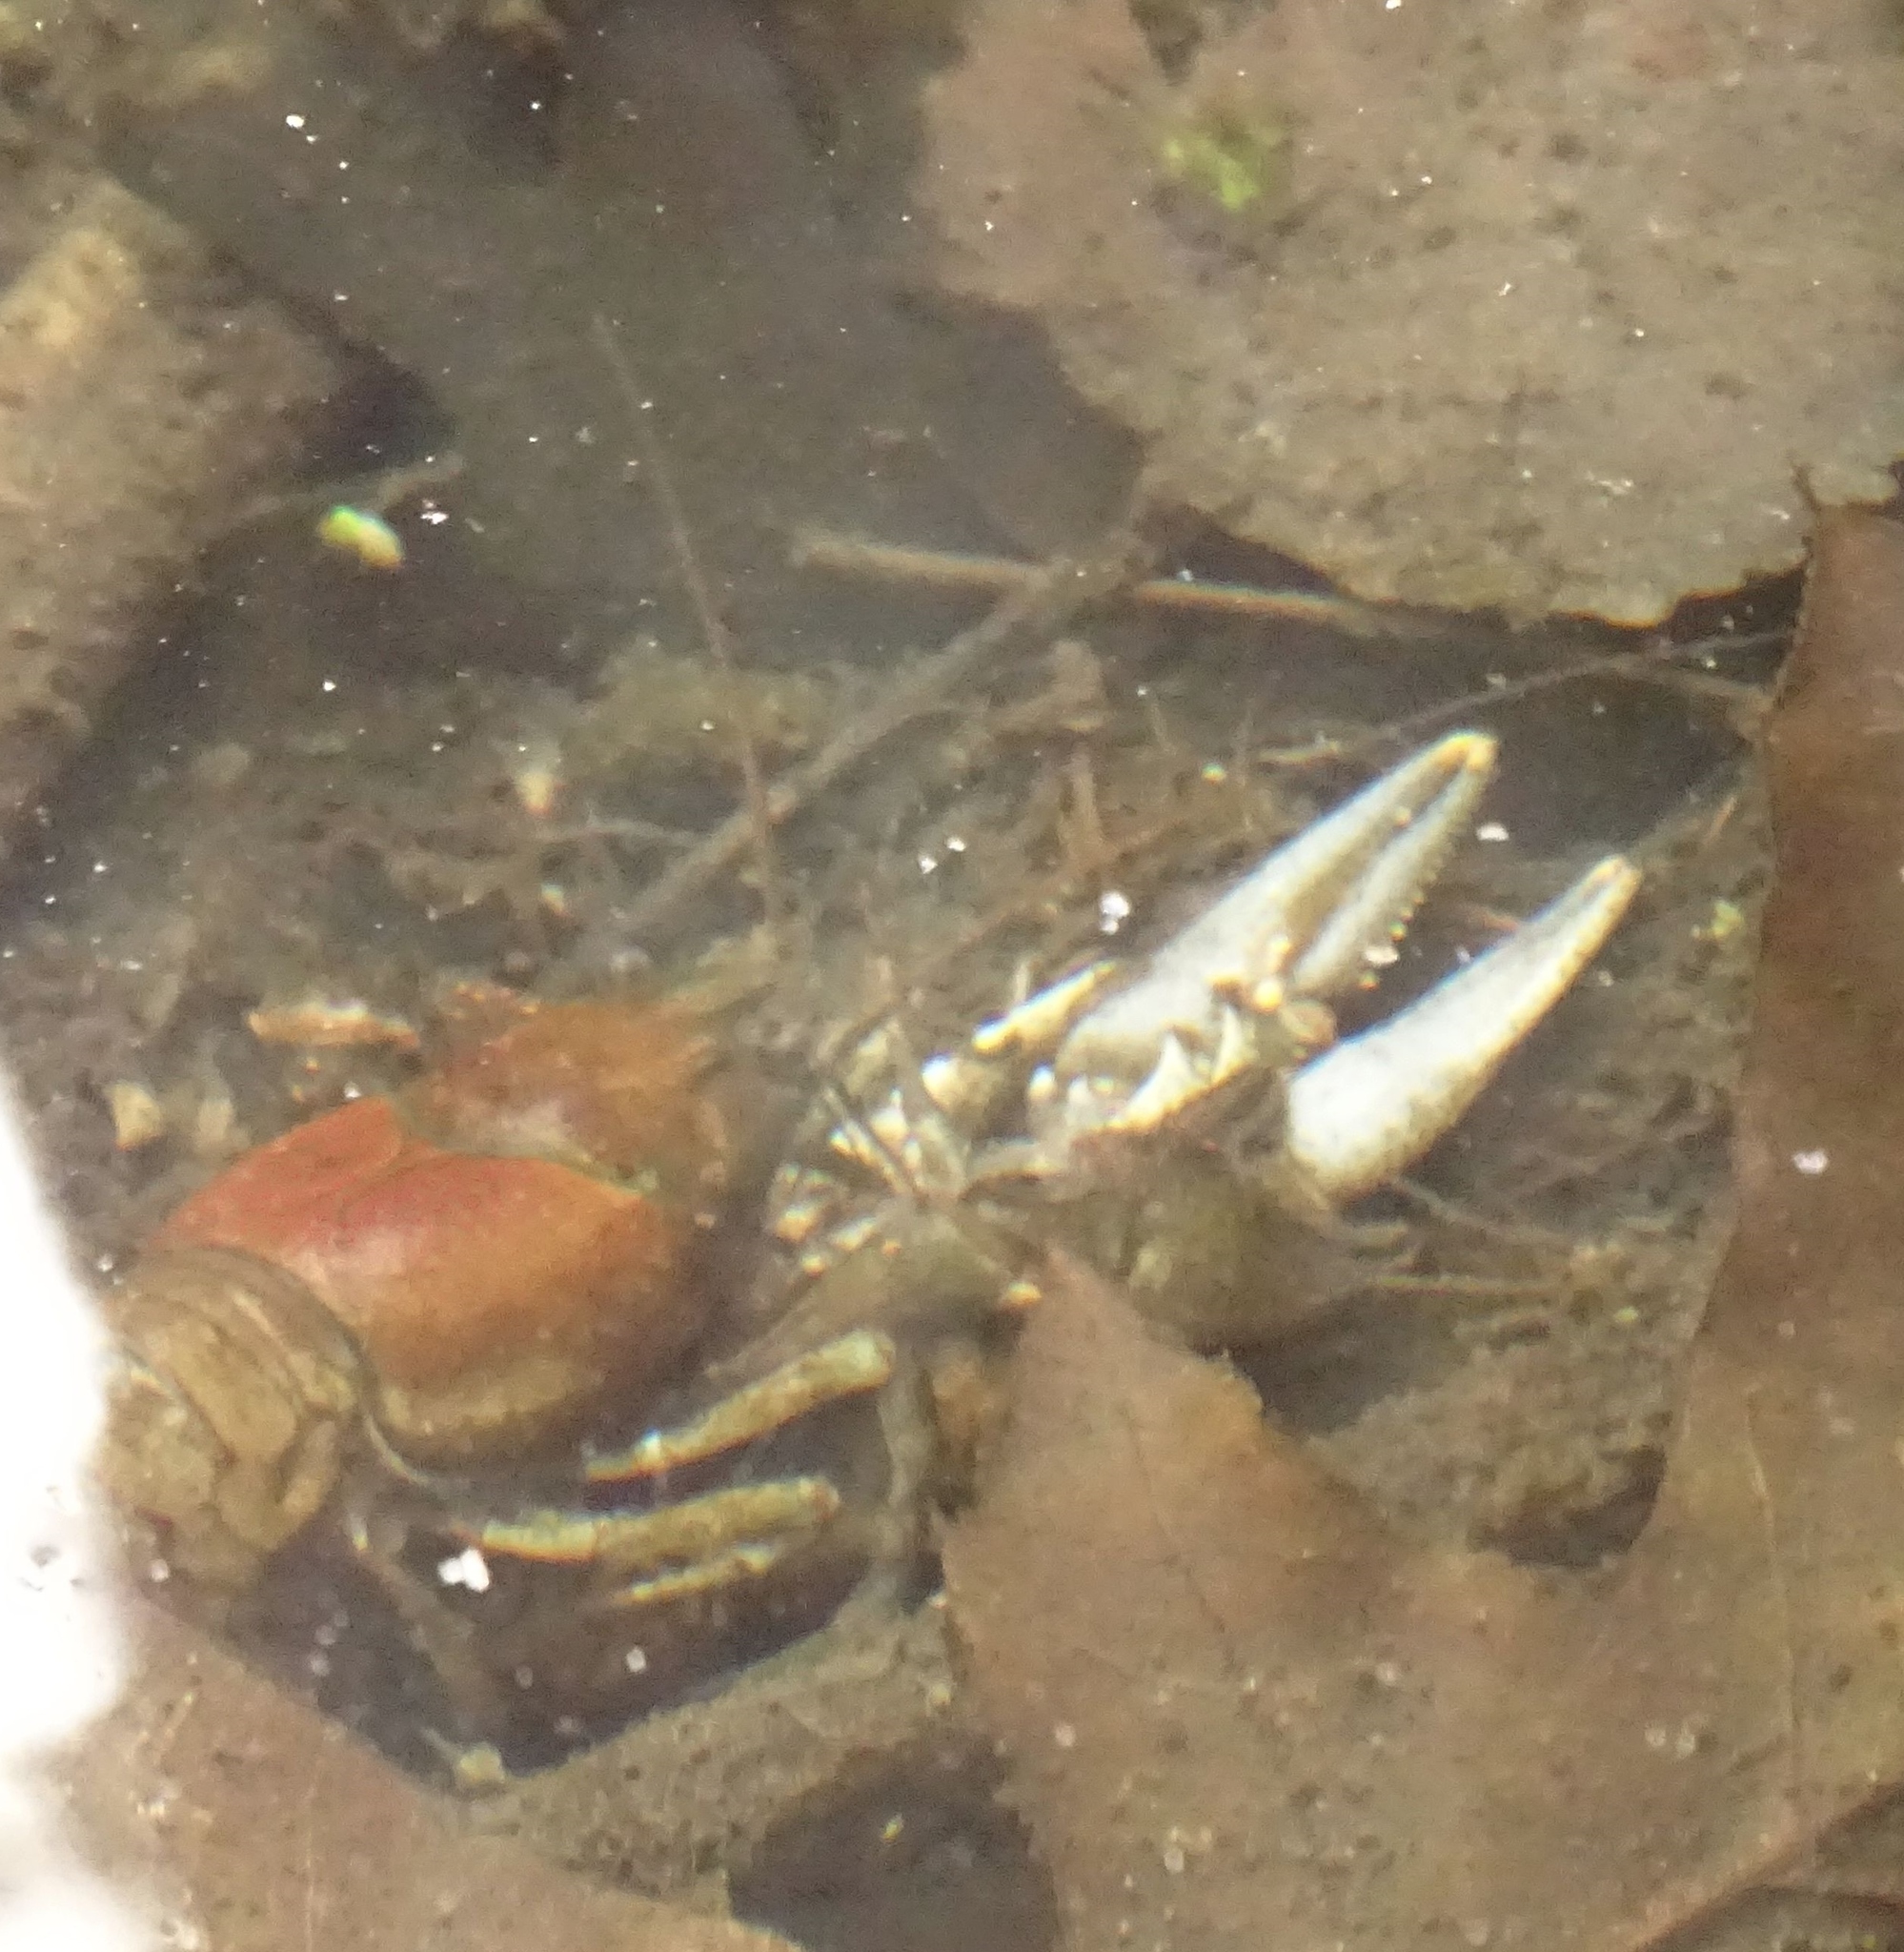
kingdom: Animalia
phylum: Arthropoda
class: Malacostraca
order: Decapoda
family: Cambaridae
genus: Faxonius
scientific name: Faxonius virilis
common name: Virile crayfish
